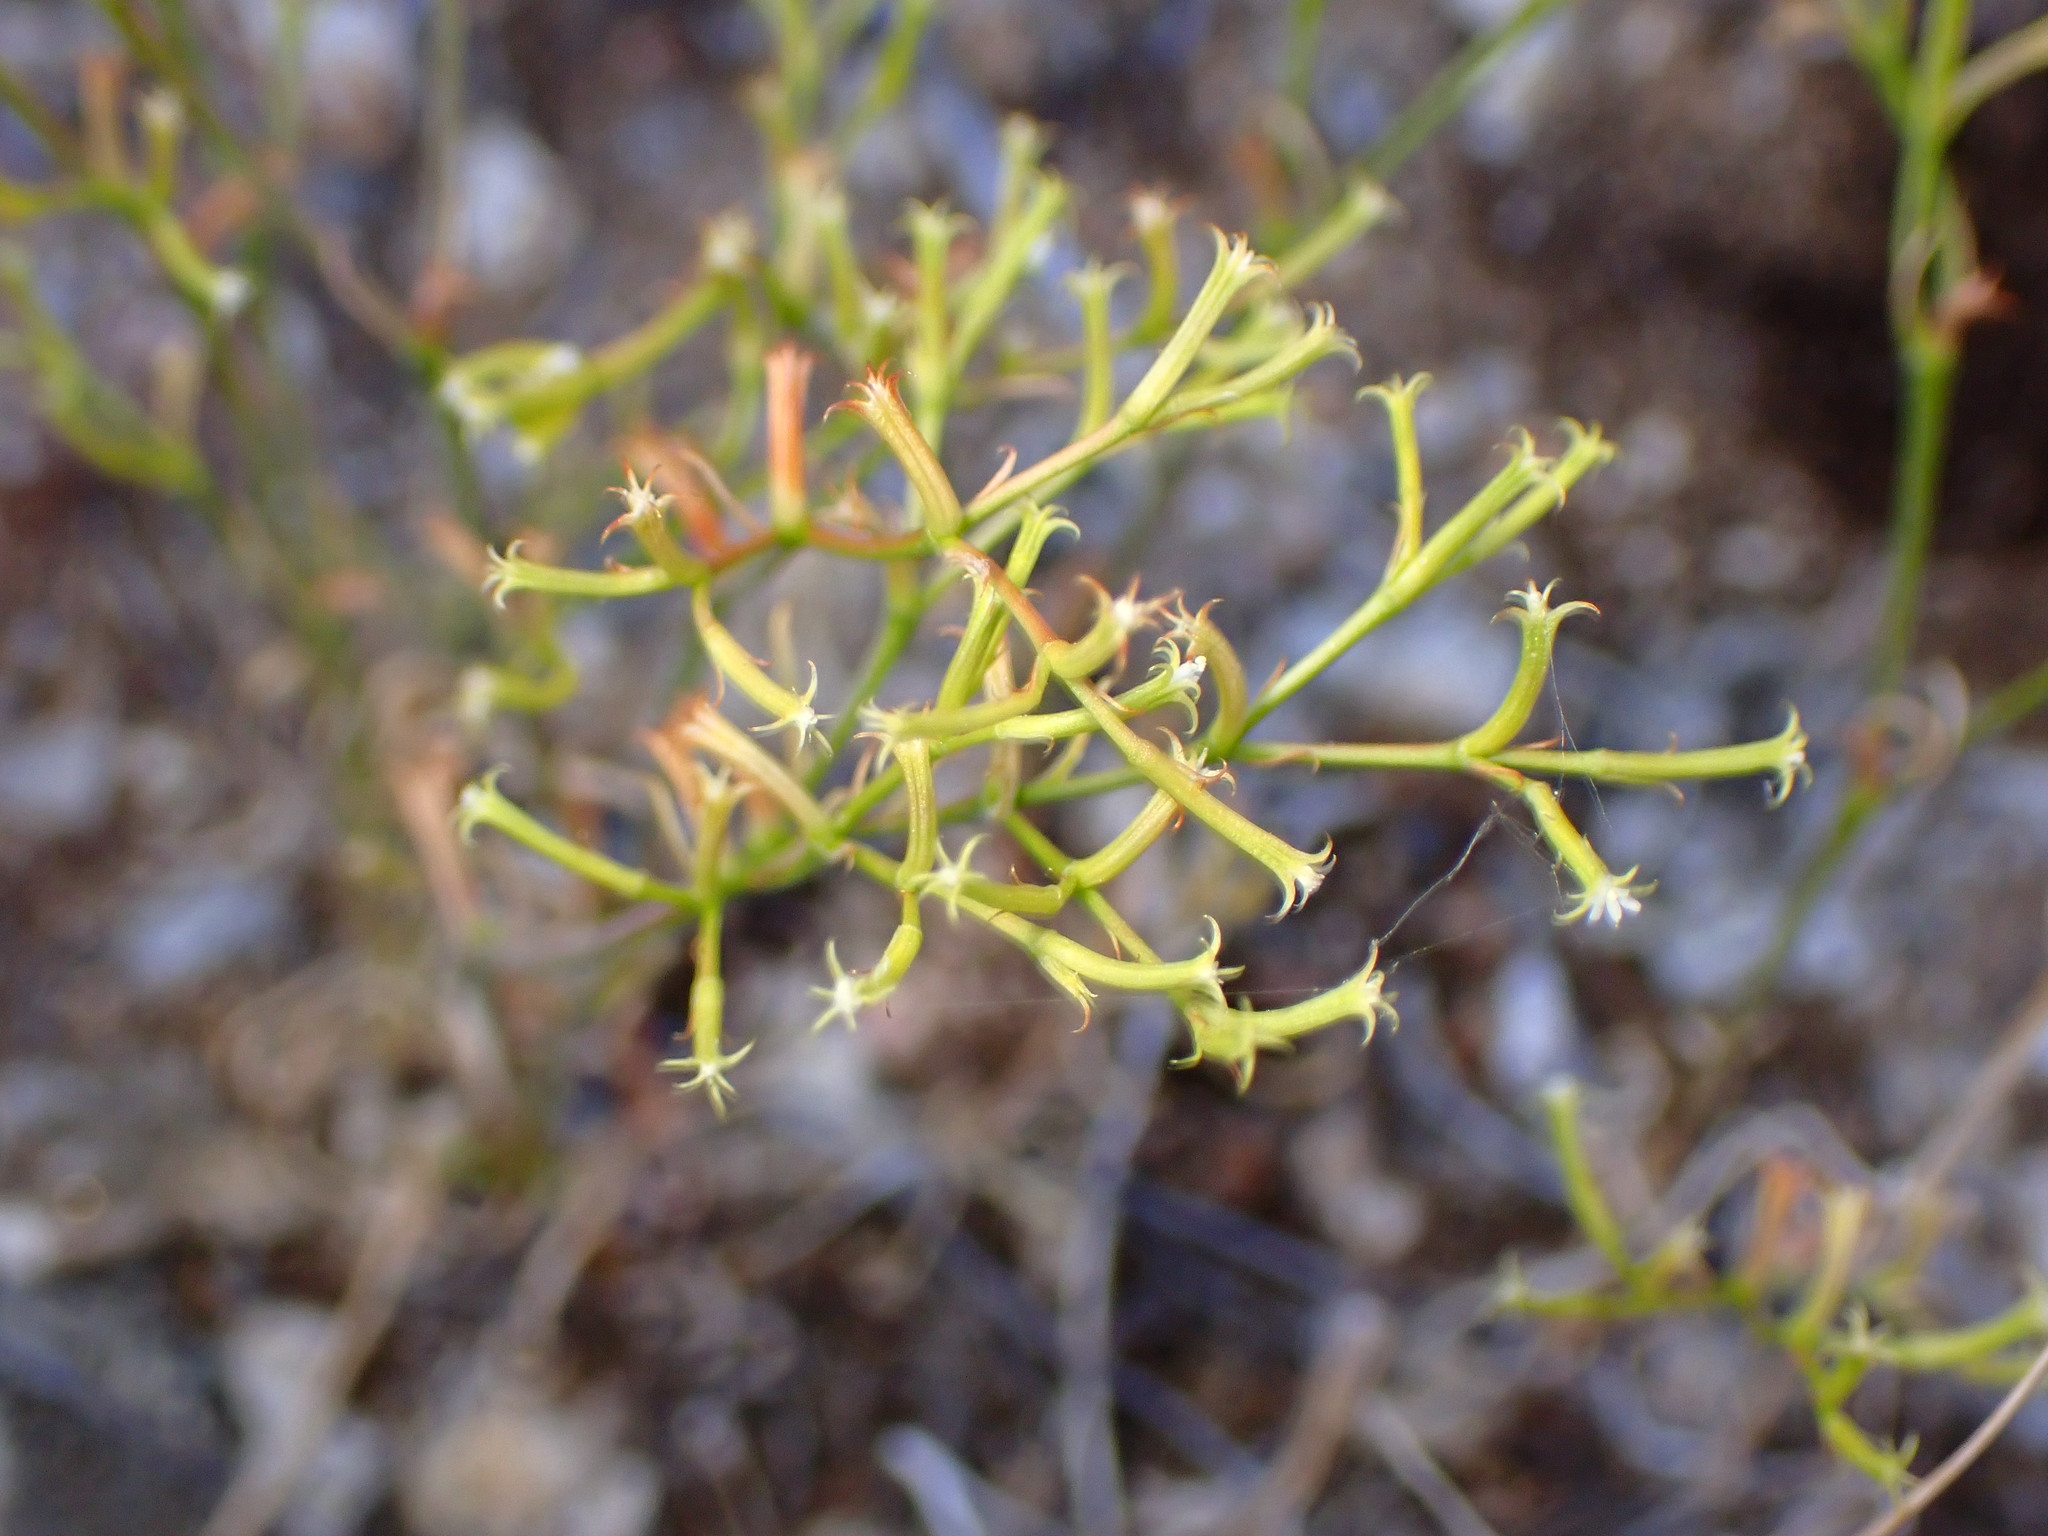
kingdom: Plantae
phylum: Tracheophyta
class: Magnoliopsida
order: Caryophyllales
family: Polygonaceae
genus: Chorizanthe
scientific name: Chorizanthe brevicornu
